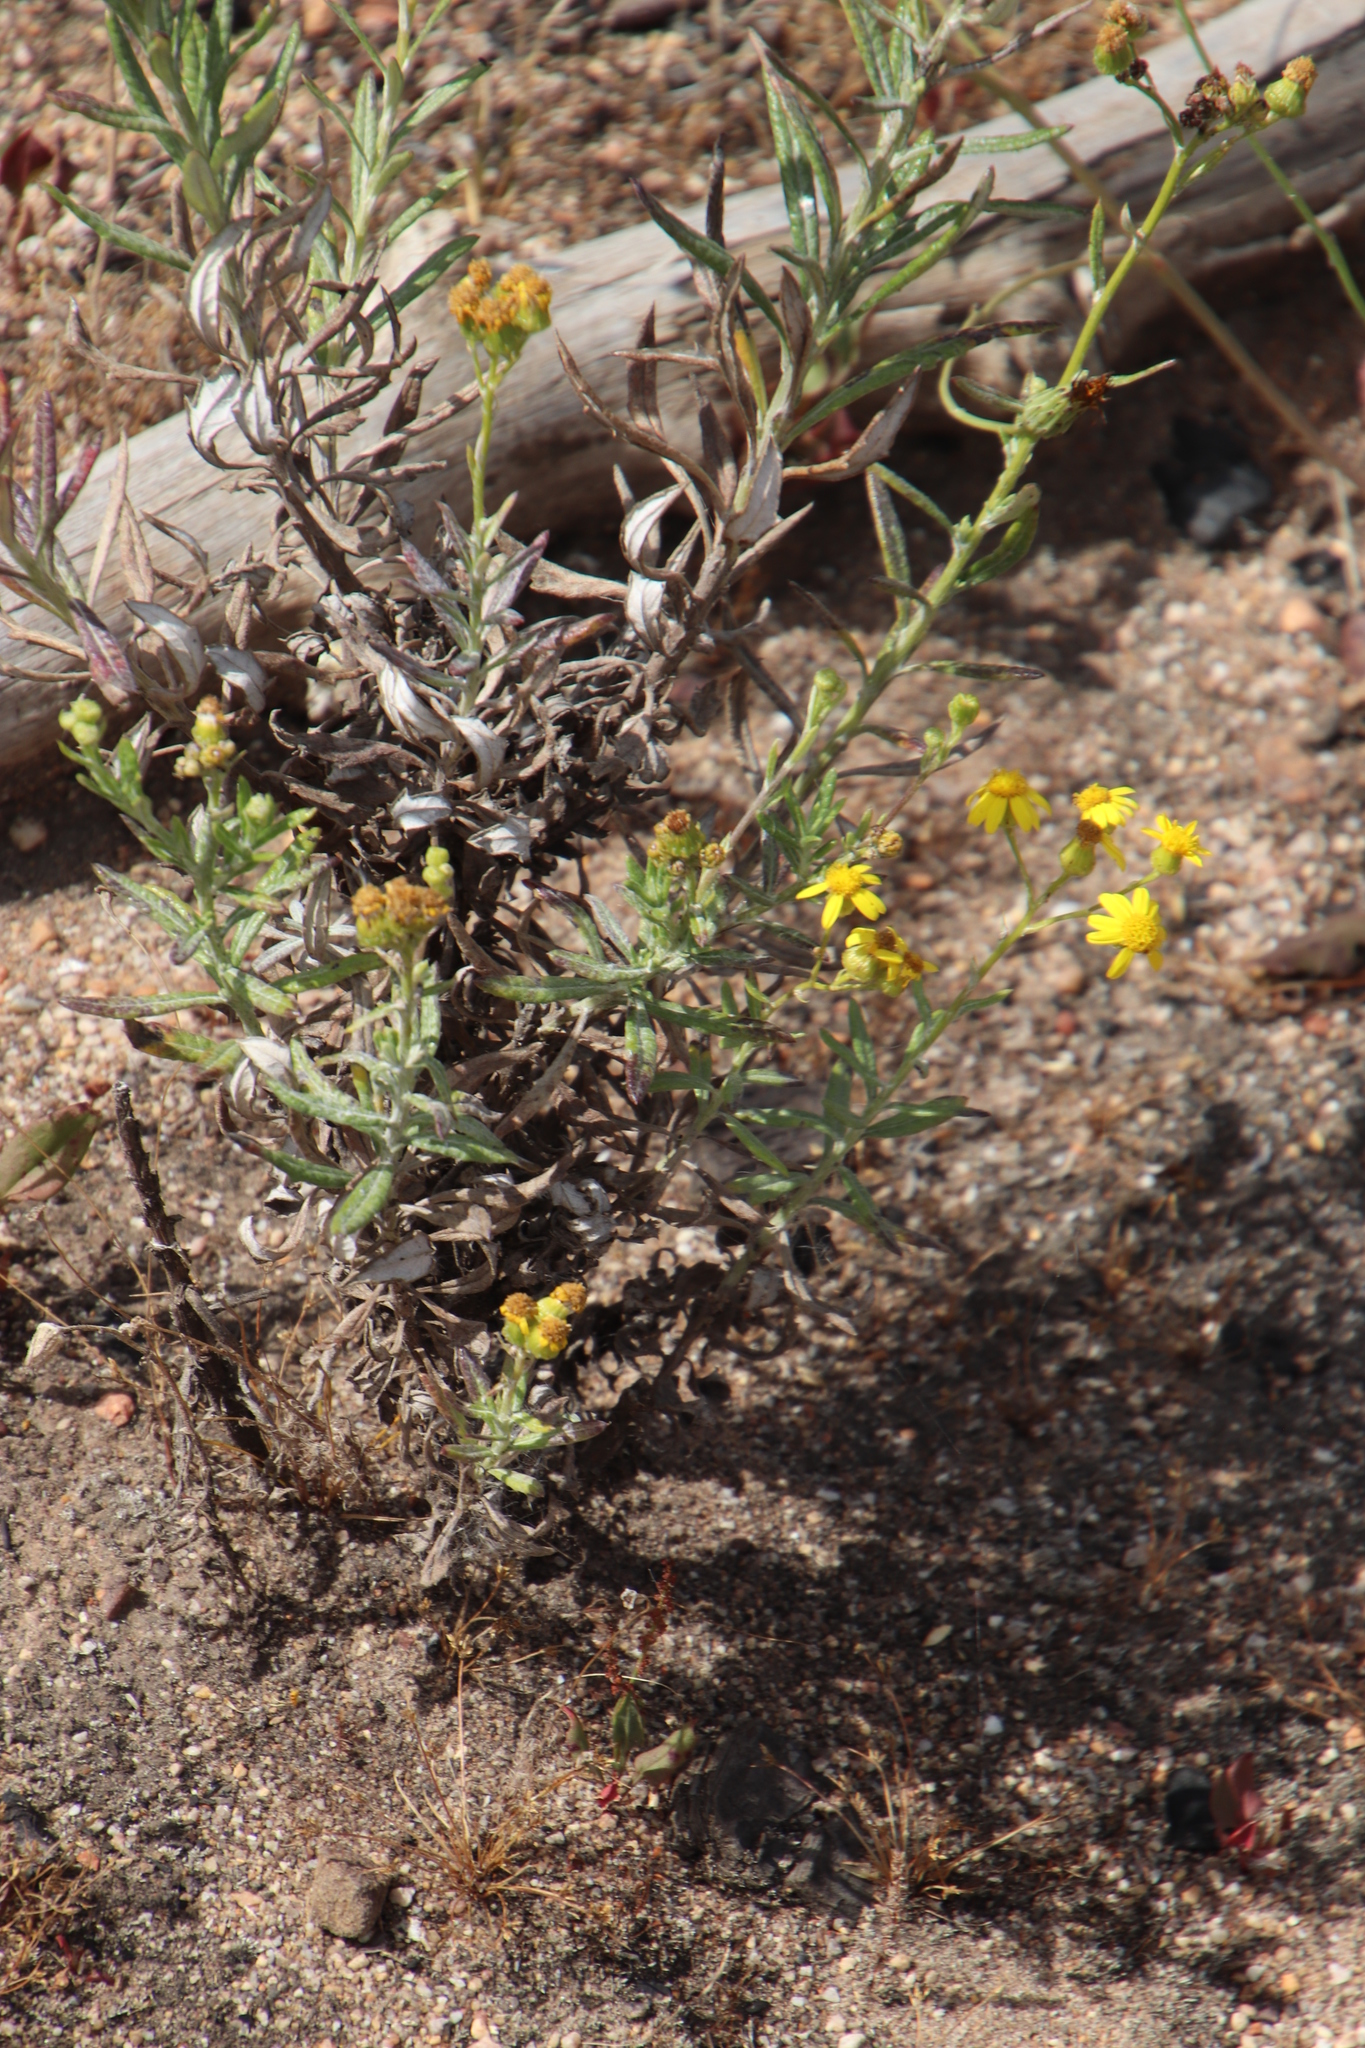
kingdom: Plantae
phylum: Tracheophyta
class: Magnoliopsida
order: Asterales
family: Asteraceae
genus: Senecio
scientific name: Senecio pubigerus
